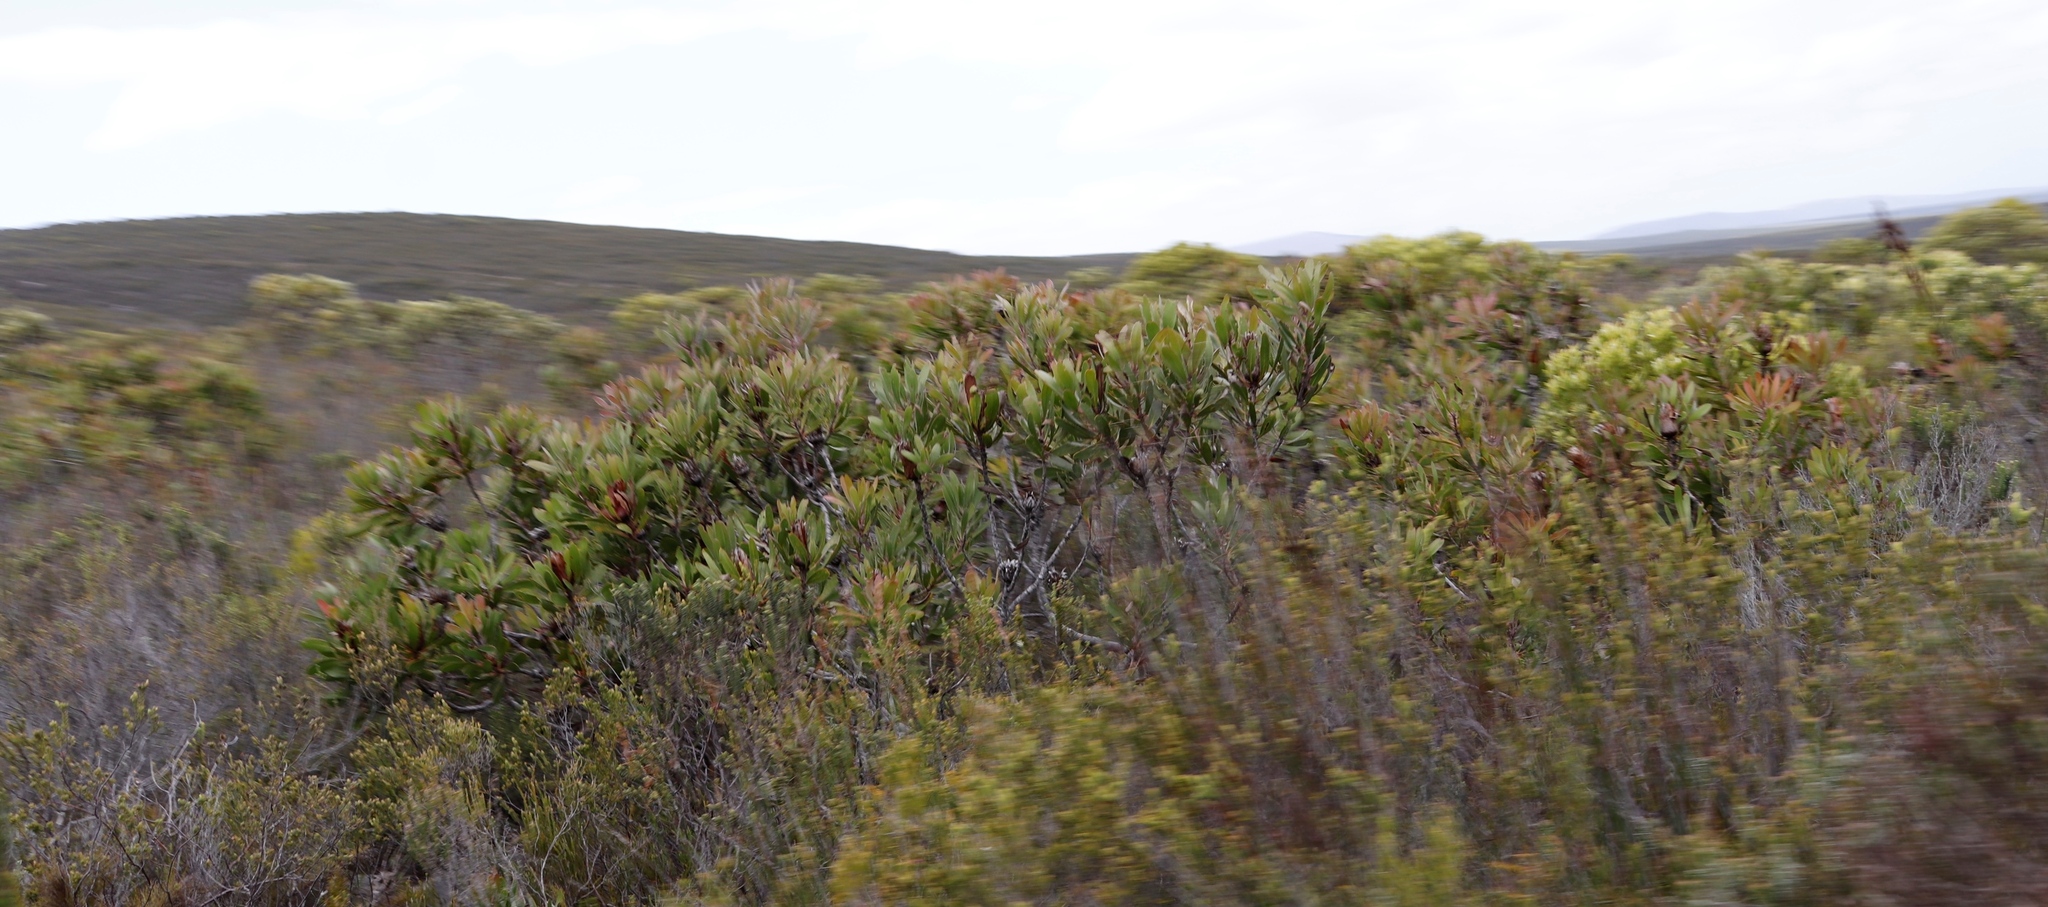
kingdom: Plantae
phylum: Tracheophyta
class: Magnoliopsida
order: Proteales
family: Proteaceae
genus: Protea
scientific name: Protea obtusifolia
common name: Bredasdorp sugarbush
